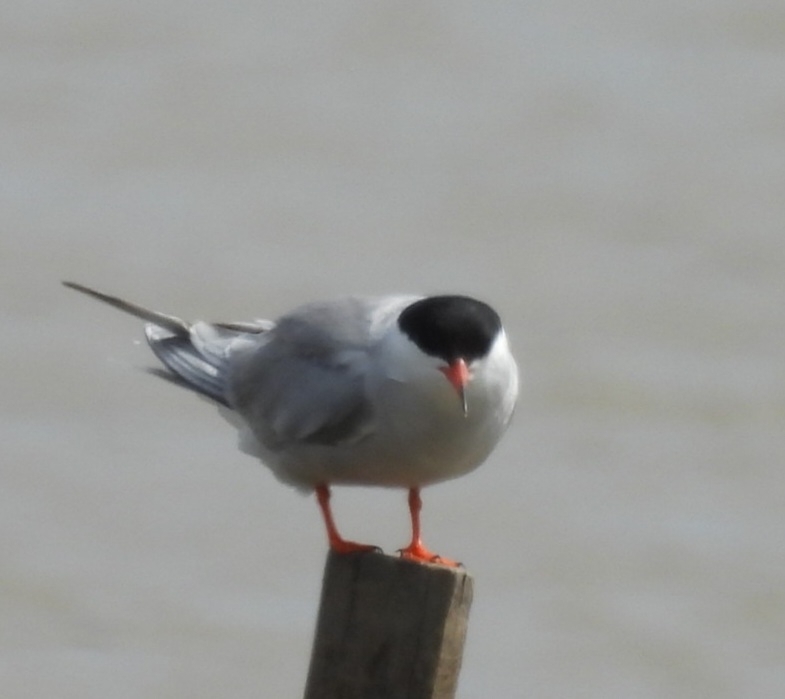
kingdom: Animalia
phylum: Chordata
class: Aves
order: Charadriiformes
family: Laridae
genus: Sterna
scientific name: Sterna hirundo
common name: Common tern
